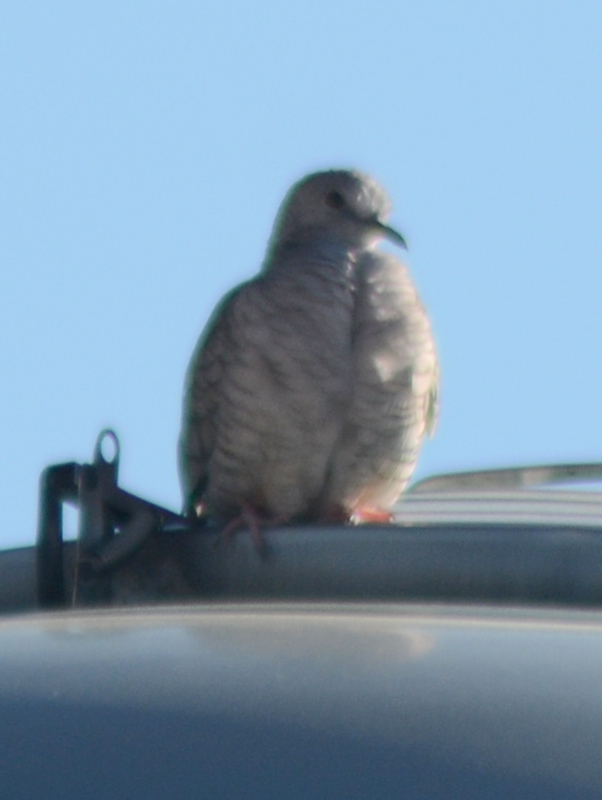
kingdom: Animalia
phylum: Chordata
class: Aves
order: Columbiformes
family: Columbidae
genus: Columbina
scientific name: Columbina inca
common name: Inca dove
